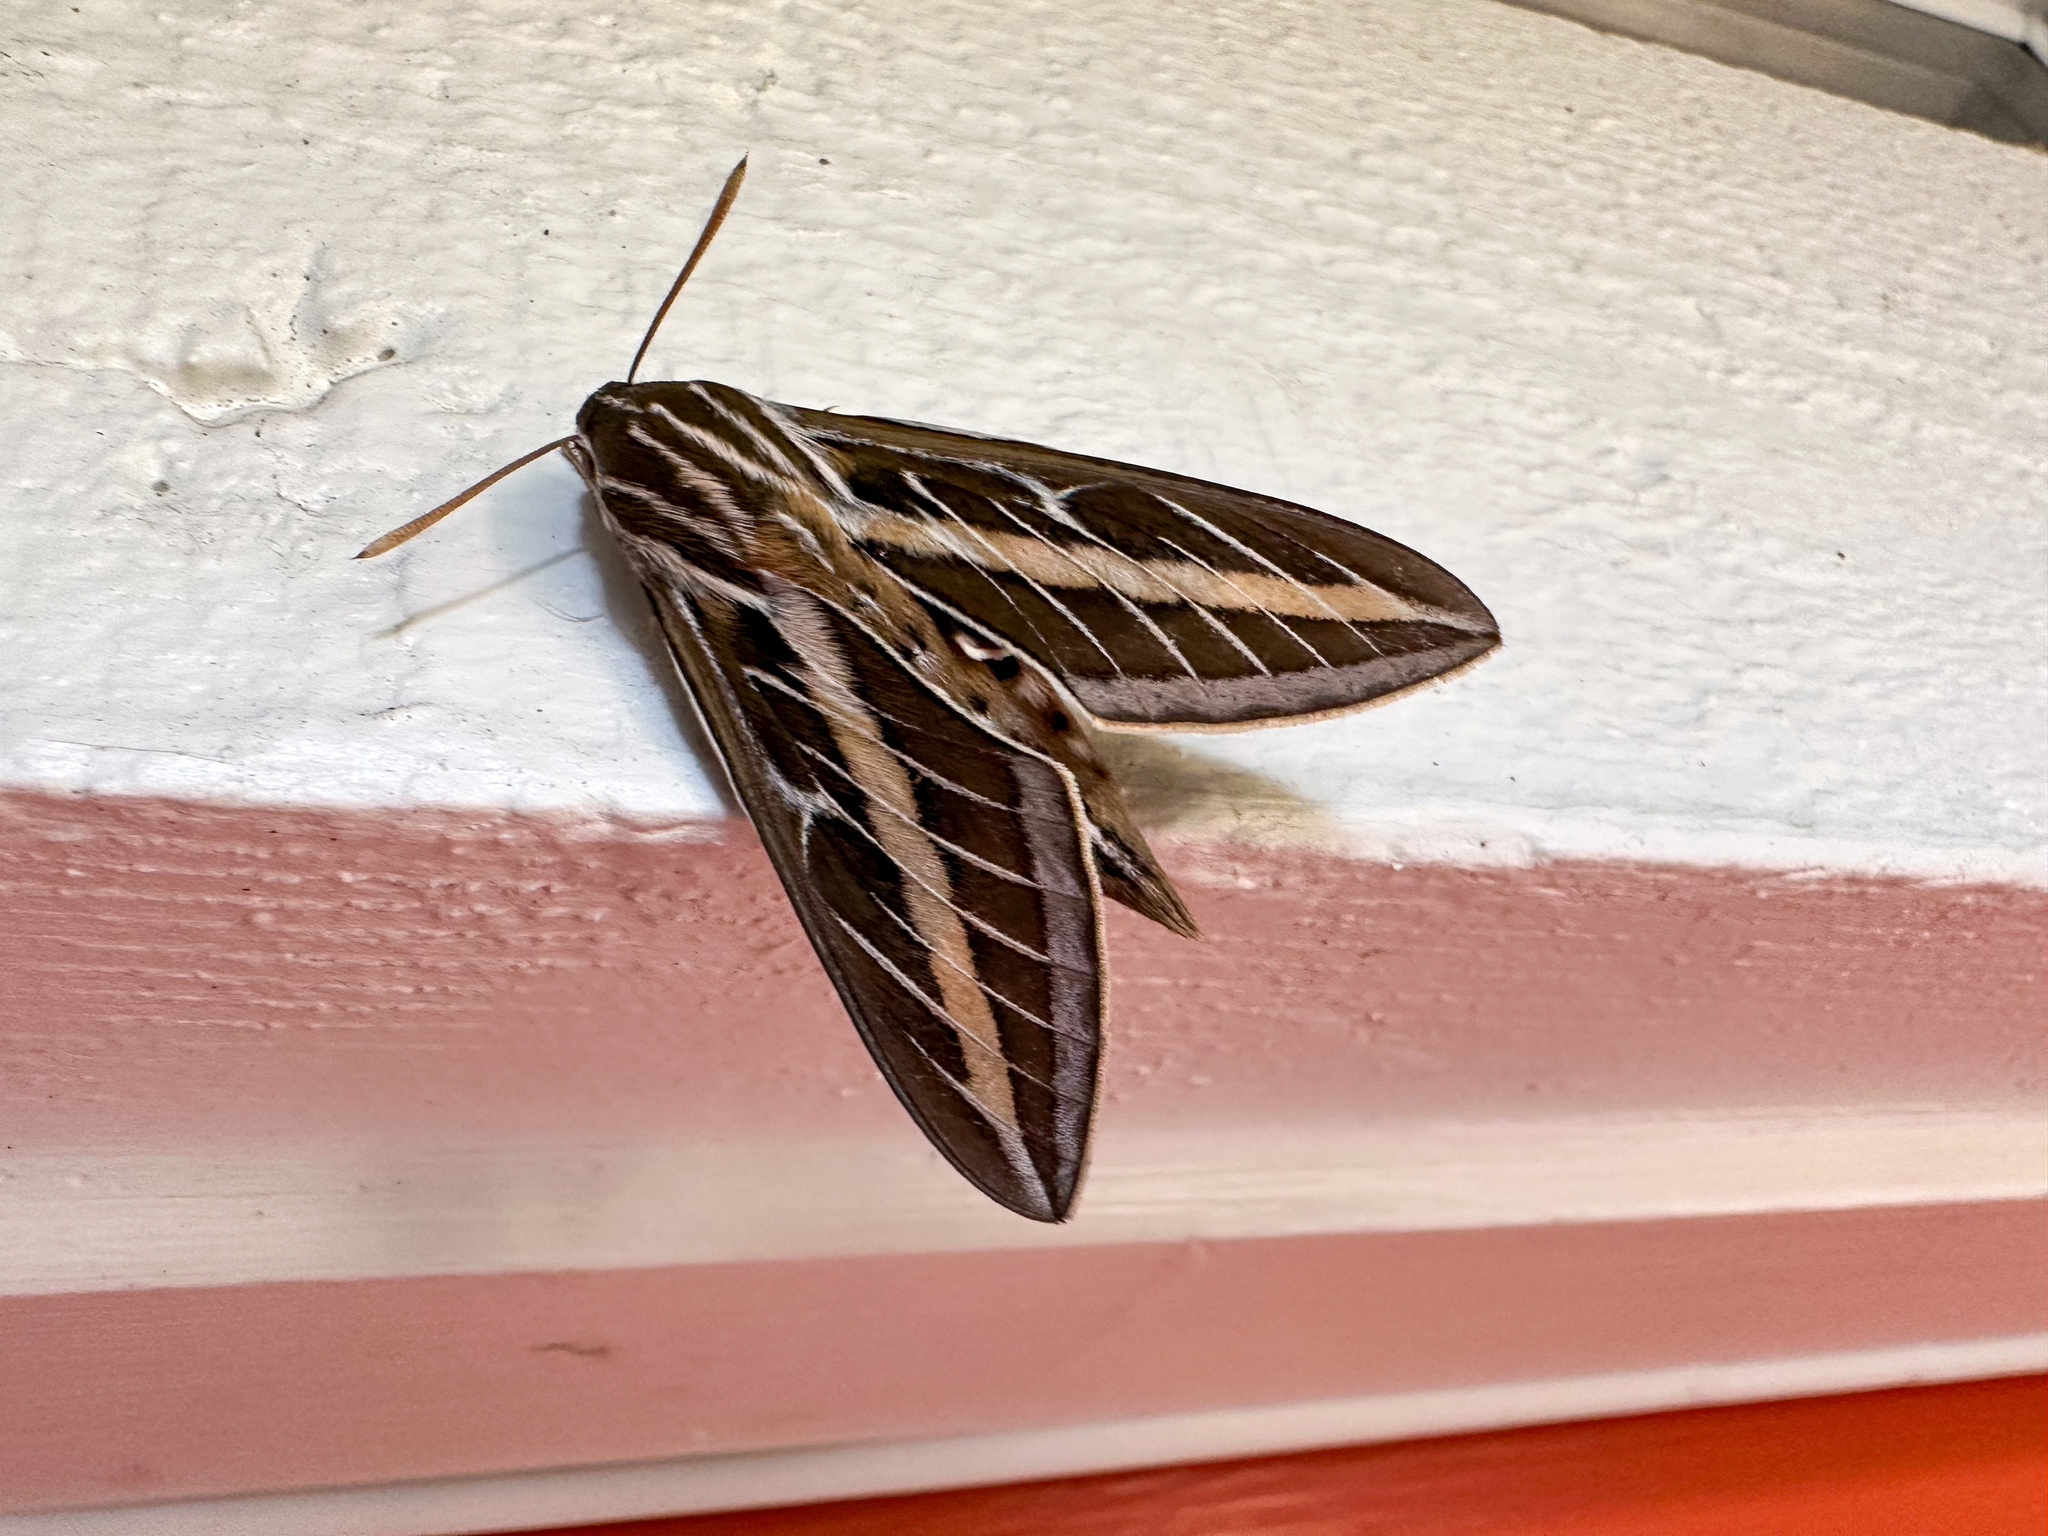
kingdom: Animalia
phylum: Arthropoda
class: Insecta
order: Lepidoptera
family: Sphingidae
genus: Hyles
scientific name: Hyles lineata
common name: White-lined sphinx
